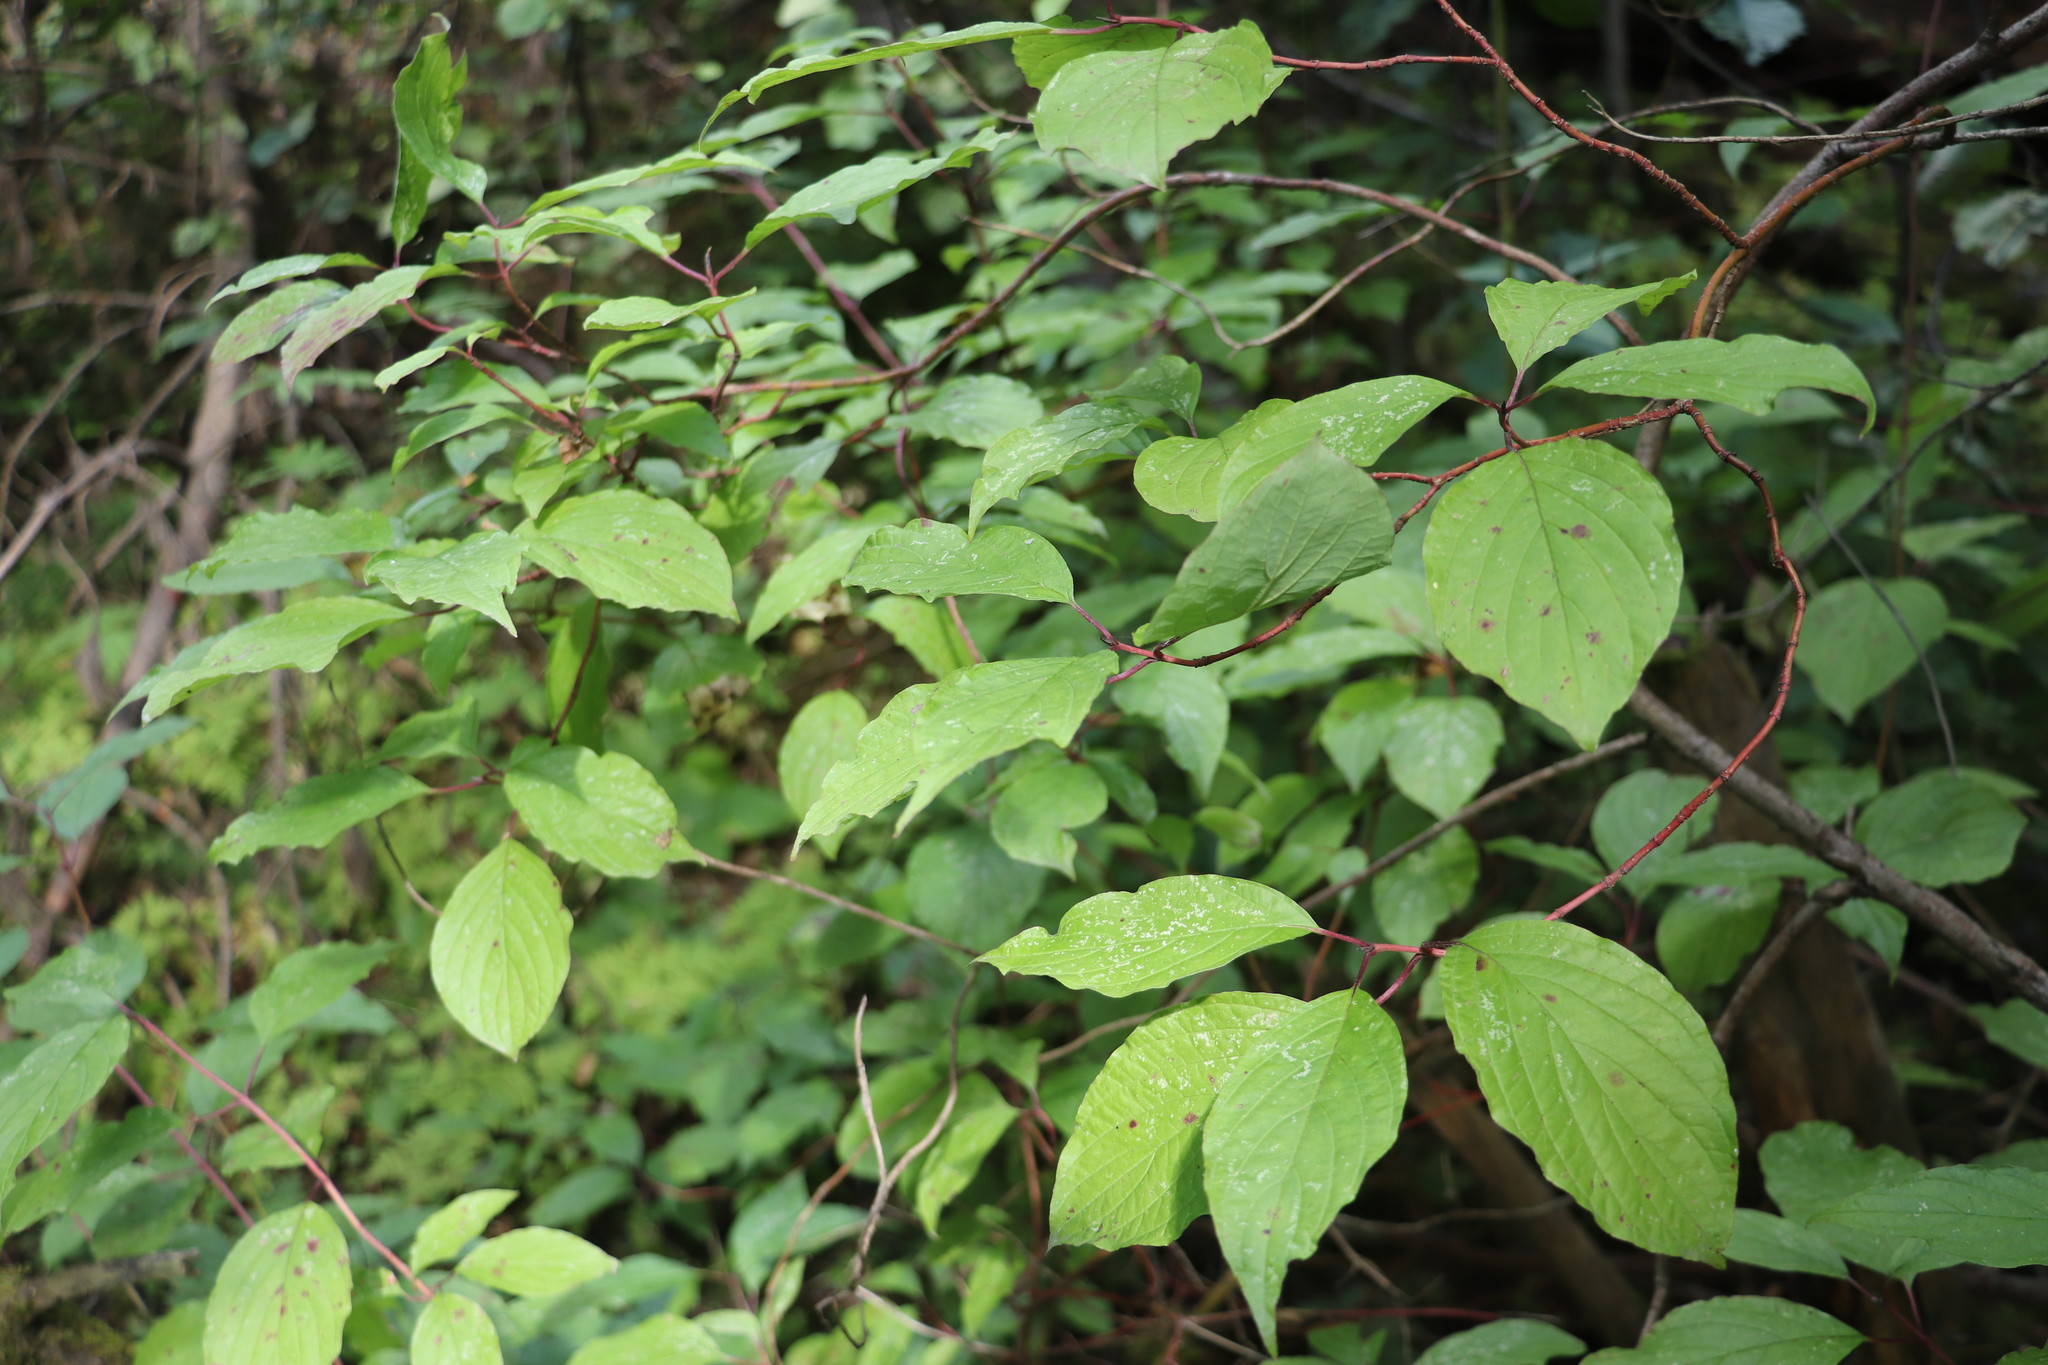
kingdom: Plantae
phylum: Tracheophyta
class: Magnoliopsida
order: Cornales
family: Cornaceae
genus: Cornus
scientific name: Cornus alba
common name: White dogwood
